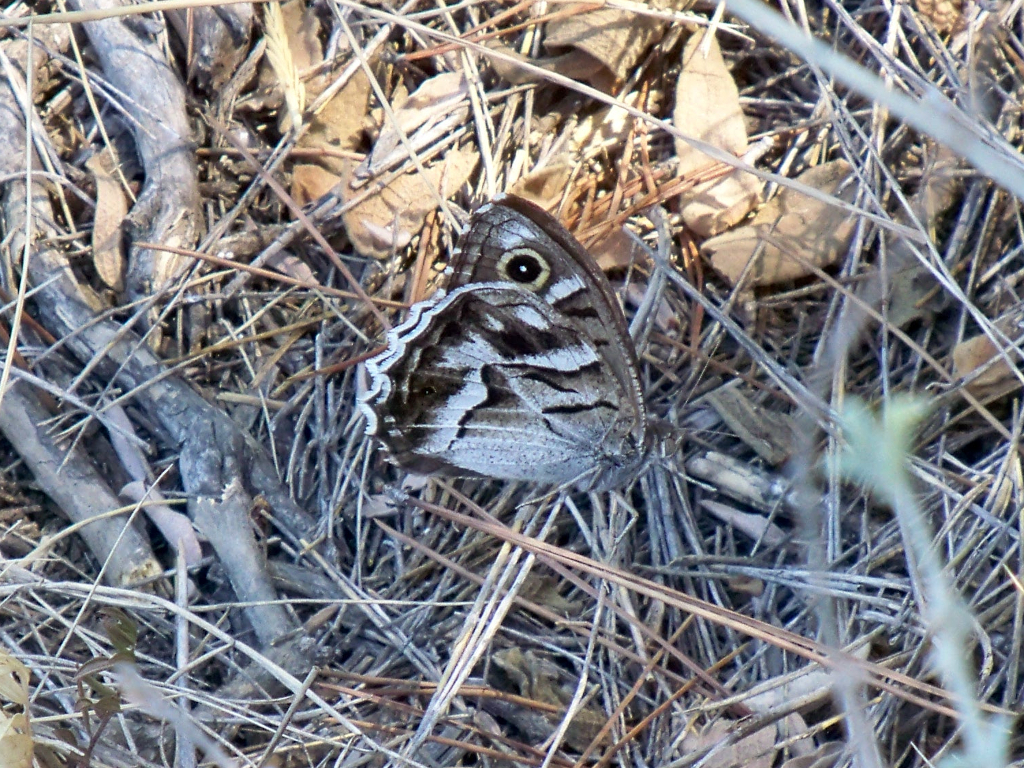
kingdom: Animalia
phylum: Arthropoda
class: Insecta
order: Lepidoptera
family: Nymphalidae
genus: Hipparchia
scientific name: Hipparchia fidia
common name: Striped grayling
